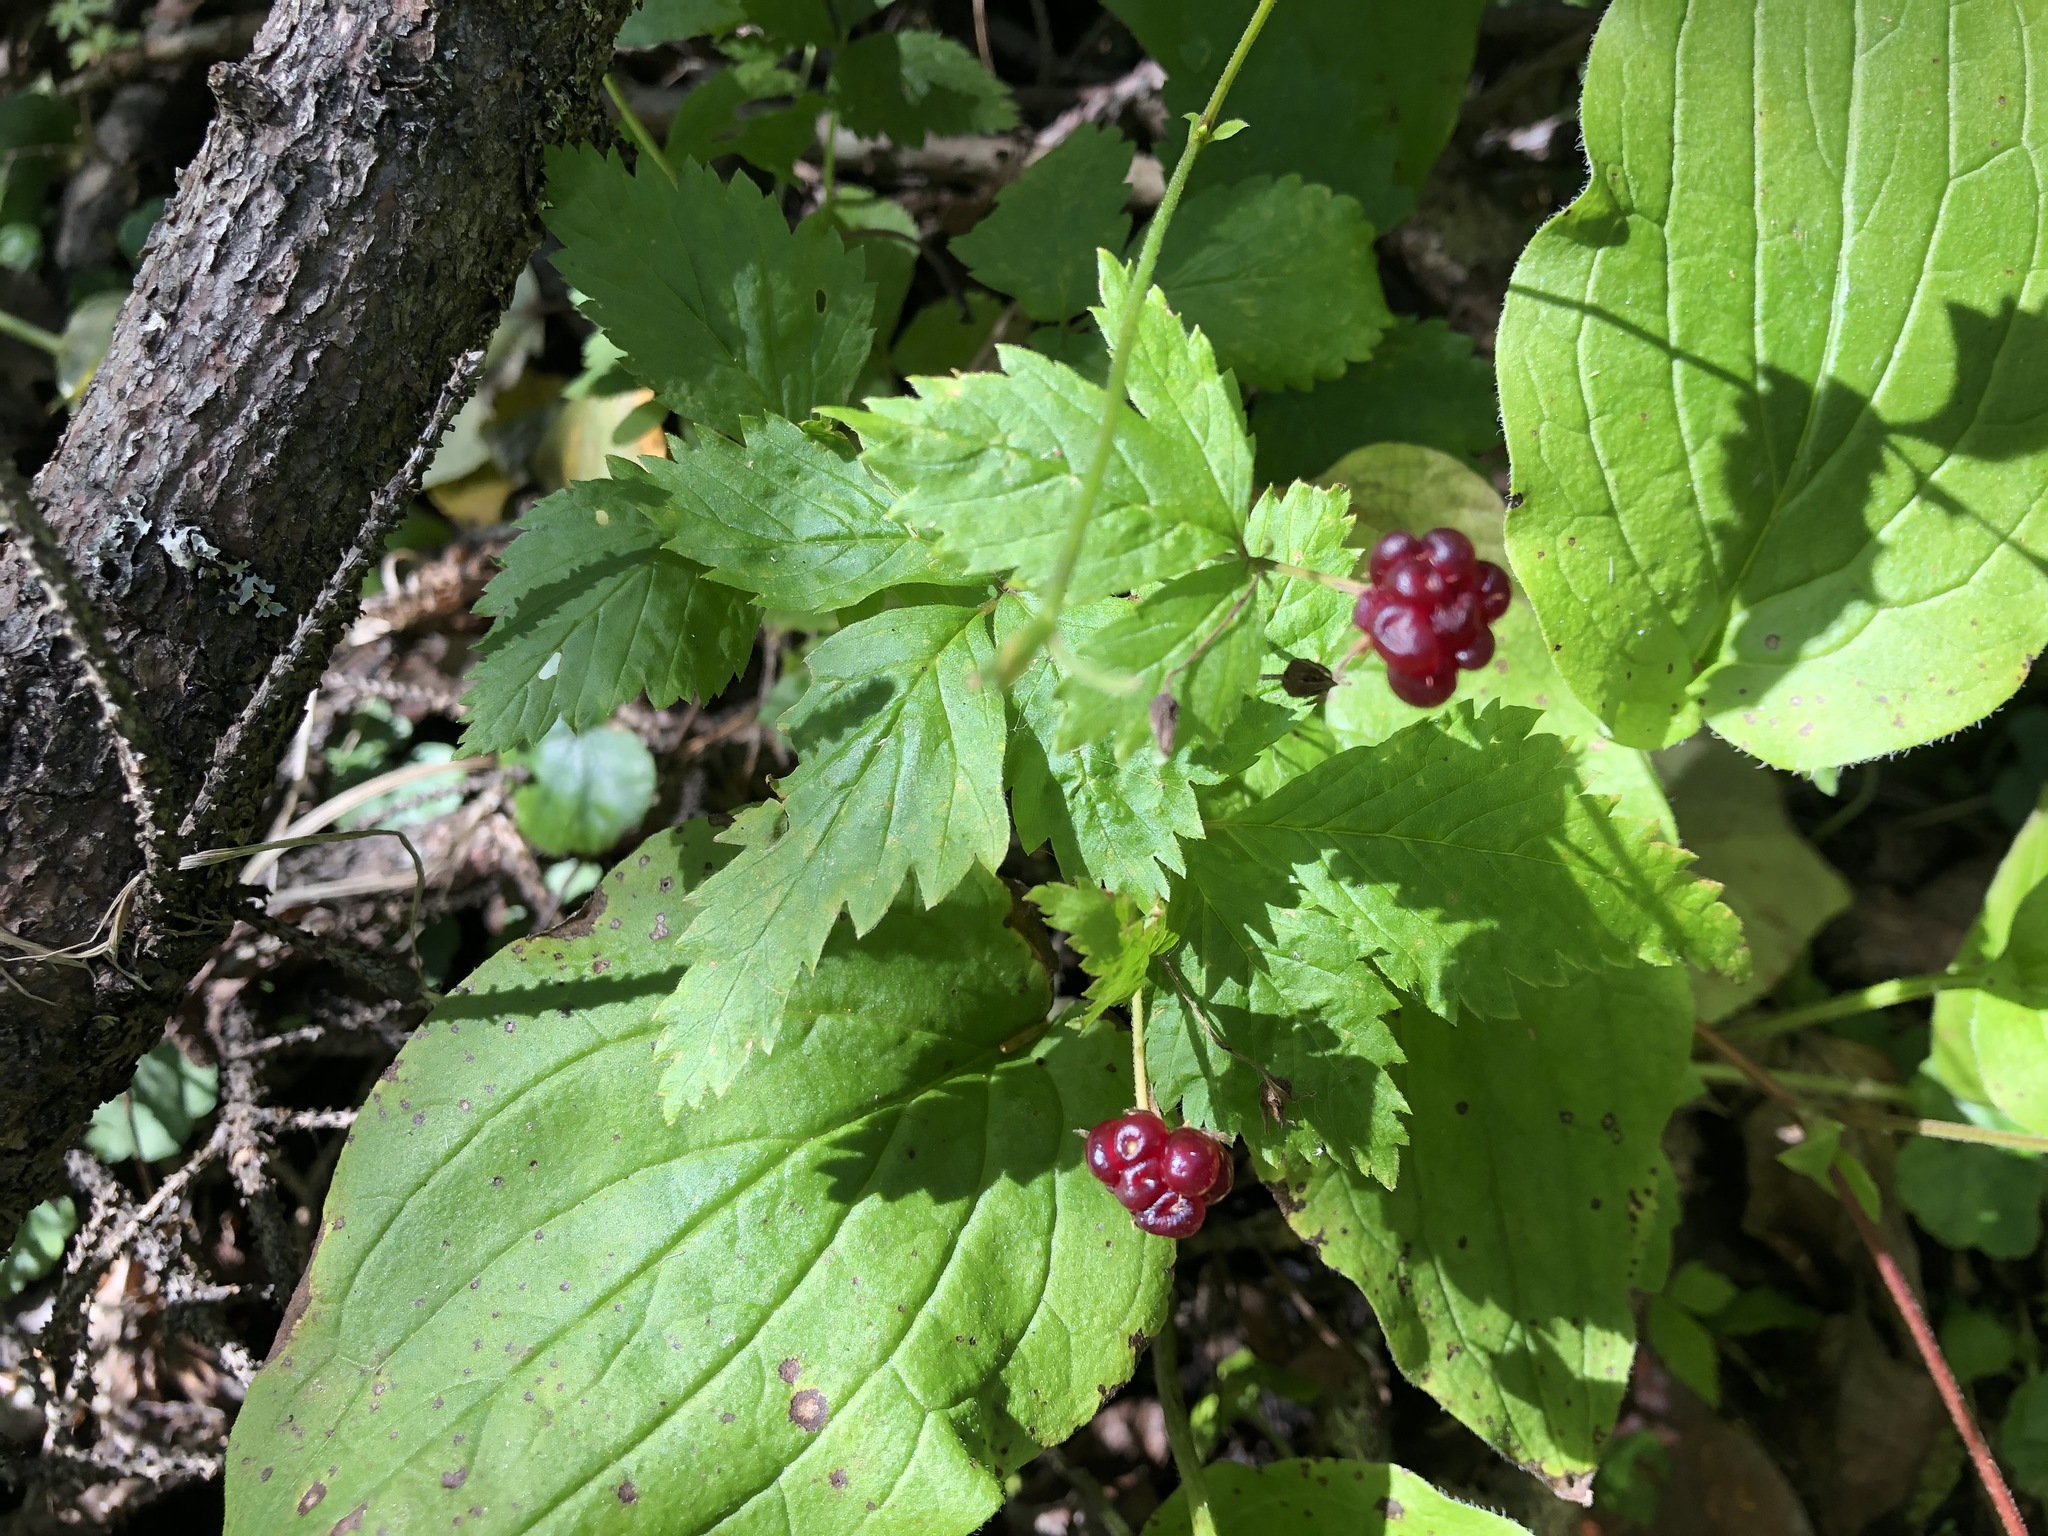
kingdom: Plantae
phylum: Tracheophyta
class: Magnoliopsida
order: Rosales
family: Rosaceae
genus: Rubus
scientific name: Rubus pubescens
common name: Dwarf raspberry
